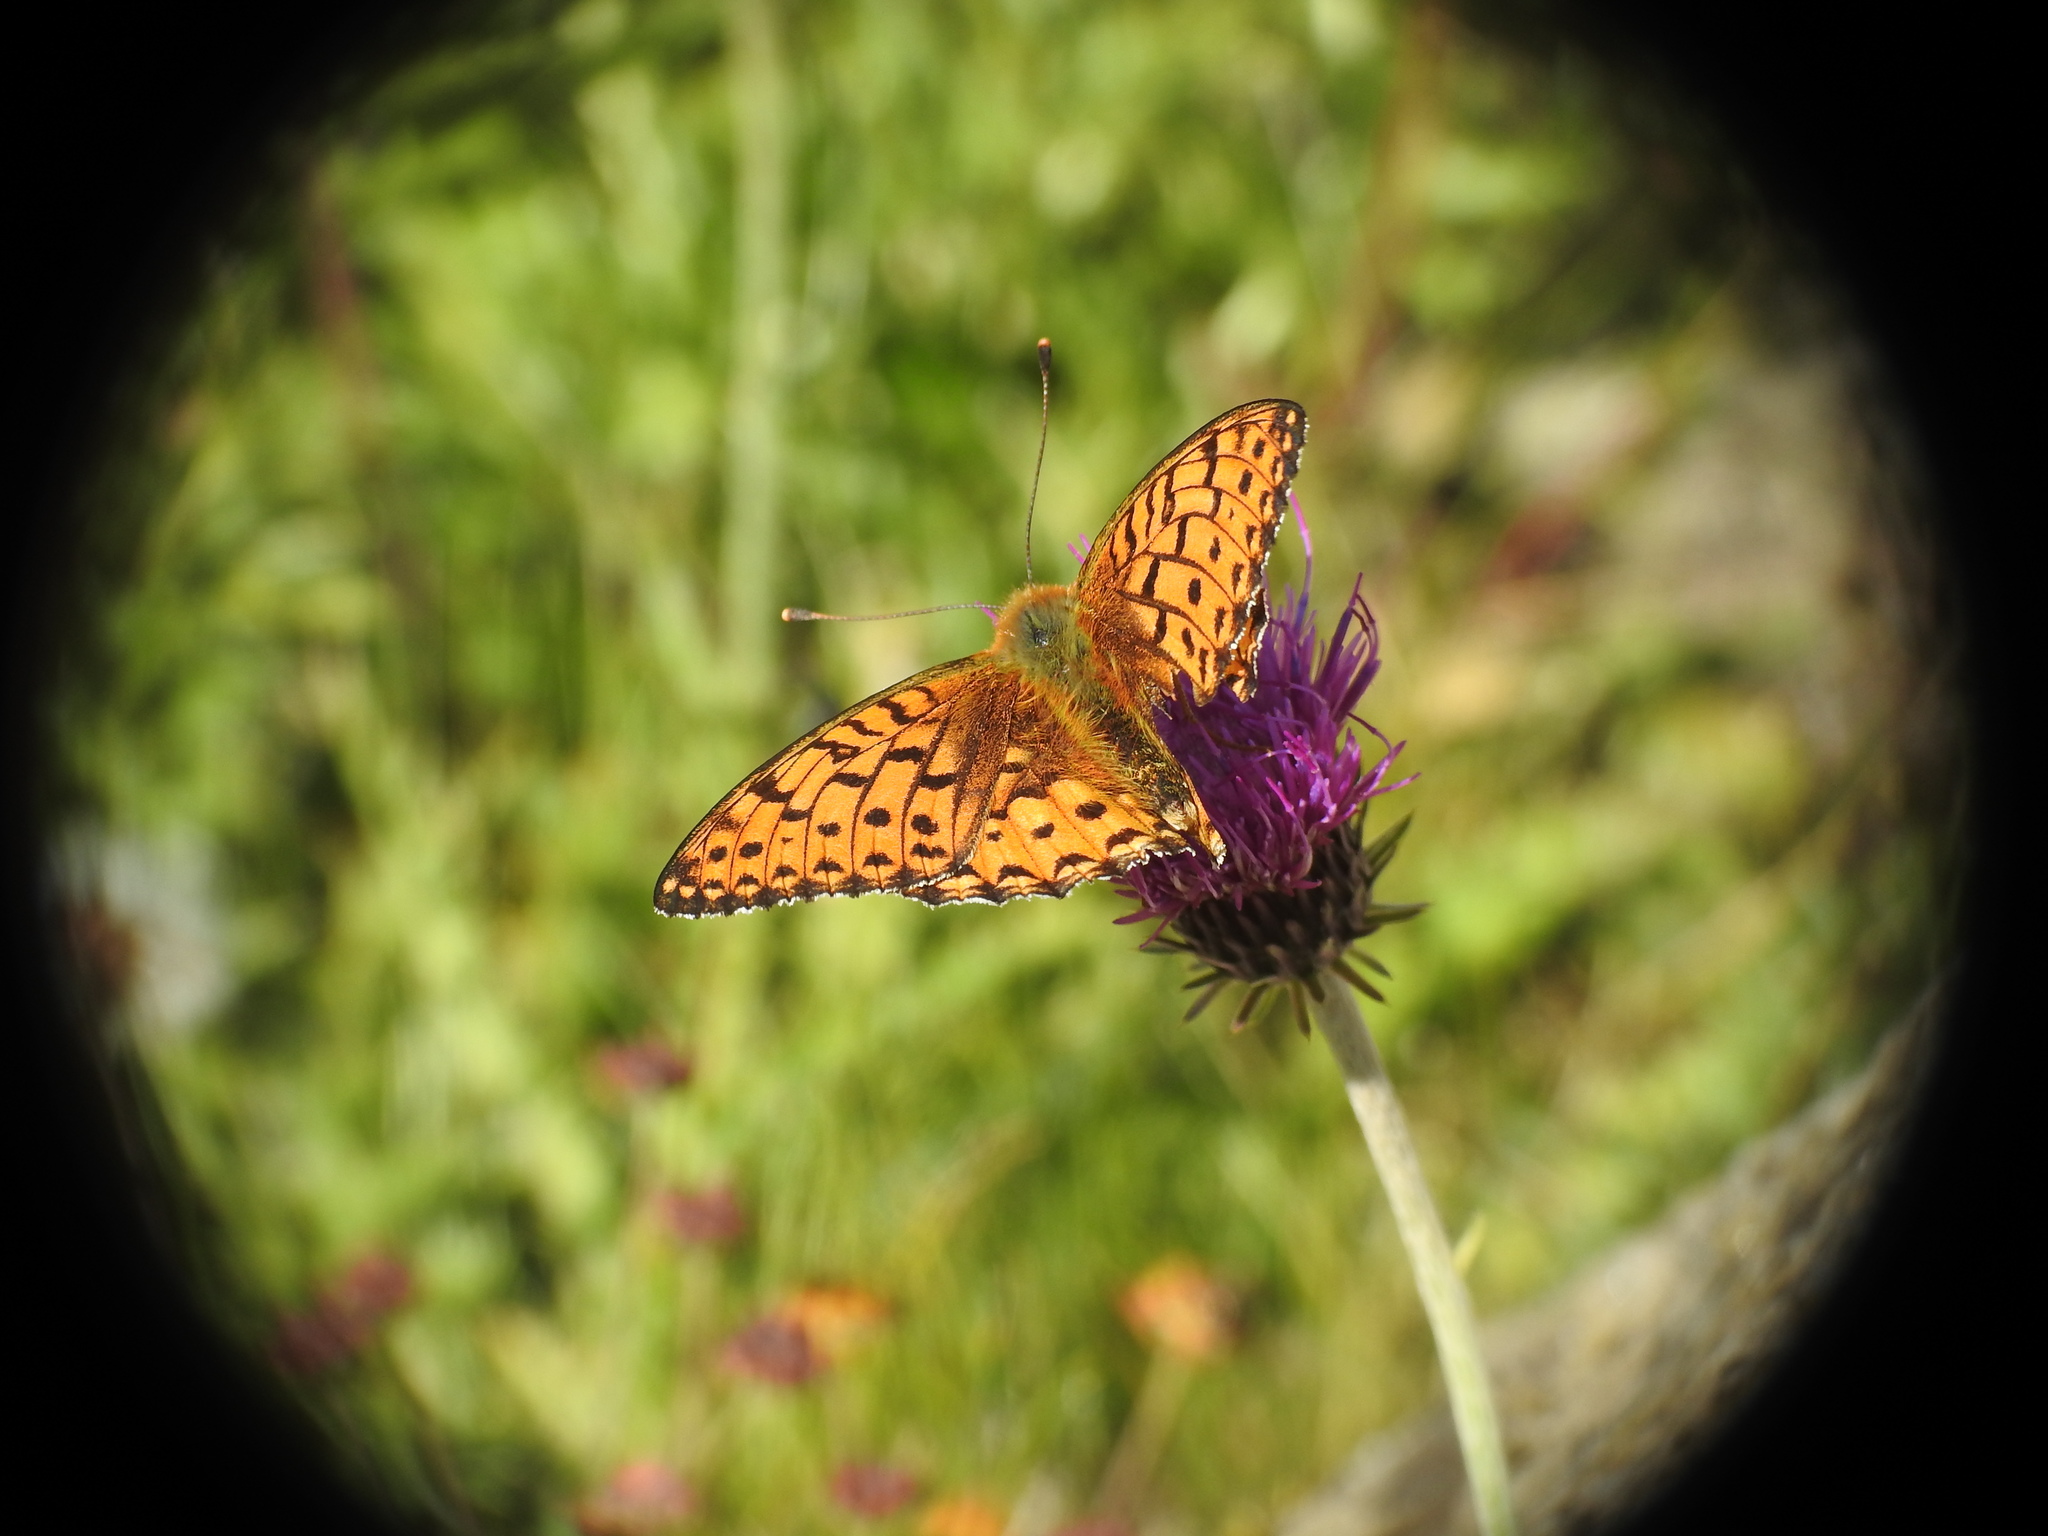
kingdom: Animalia
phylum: Arthropoda
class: Insecta
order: Lepidoptera
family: Nymphalidae
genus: Speyeria
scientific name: Speyeria aglaja
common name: Dark green fritillary
